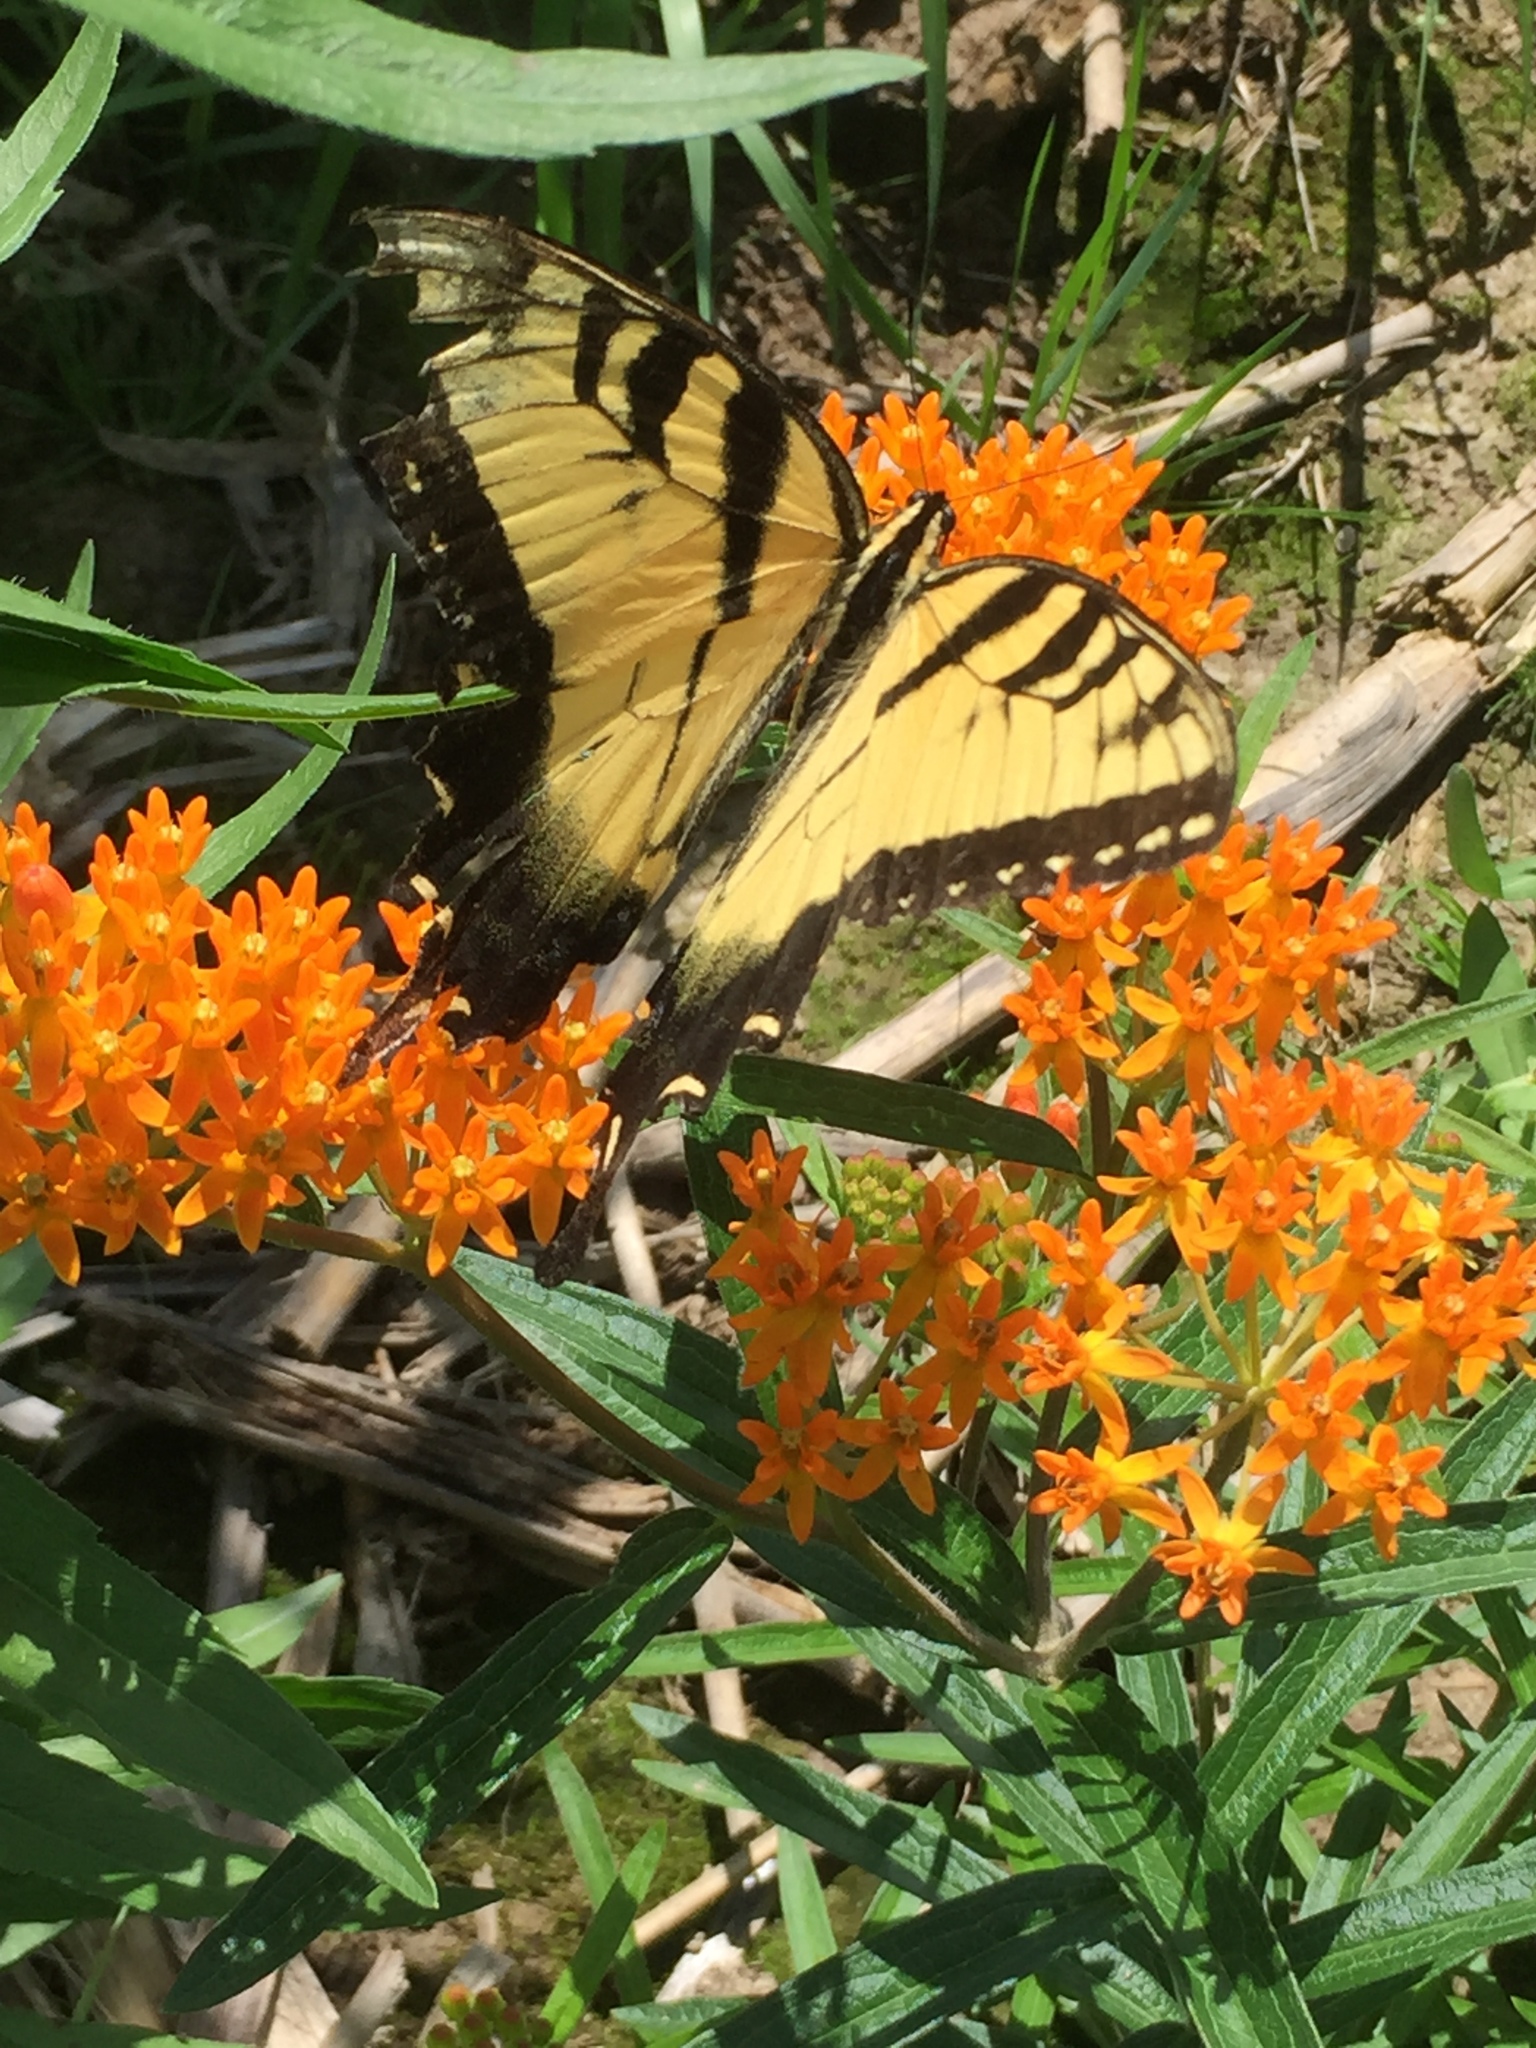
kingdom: Animalia
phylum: Arthropoda
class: Insecta
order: Lepidoptera
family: Papilionidae
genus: Papilio
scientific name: Papilio glaucus
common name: Tiger swallowtail
